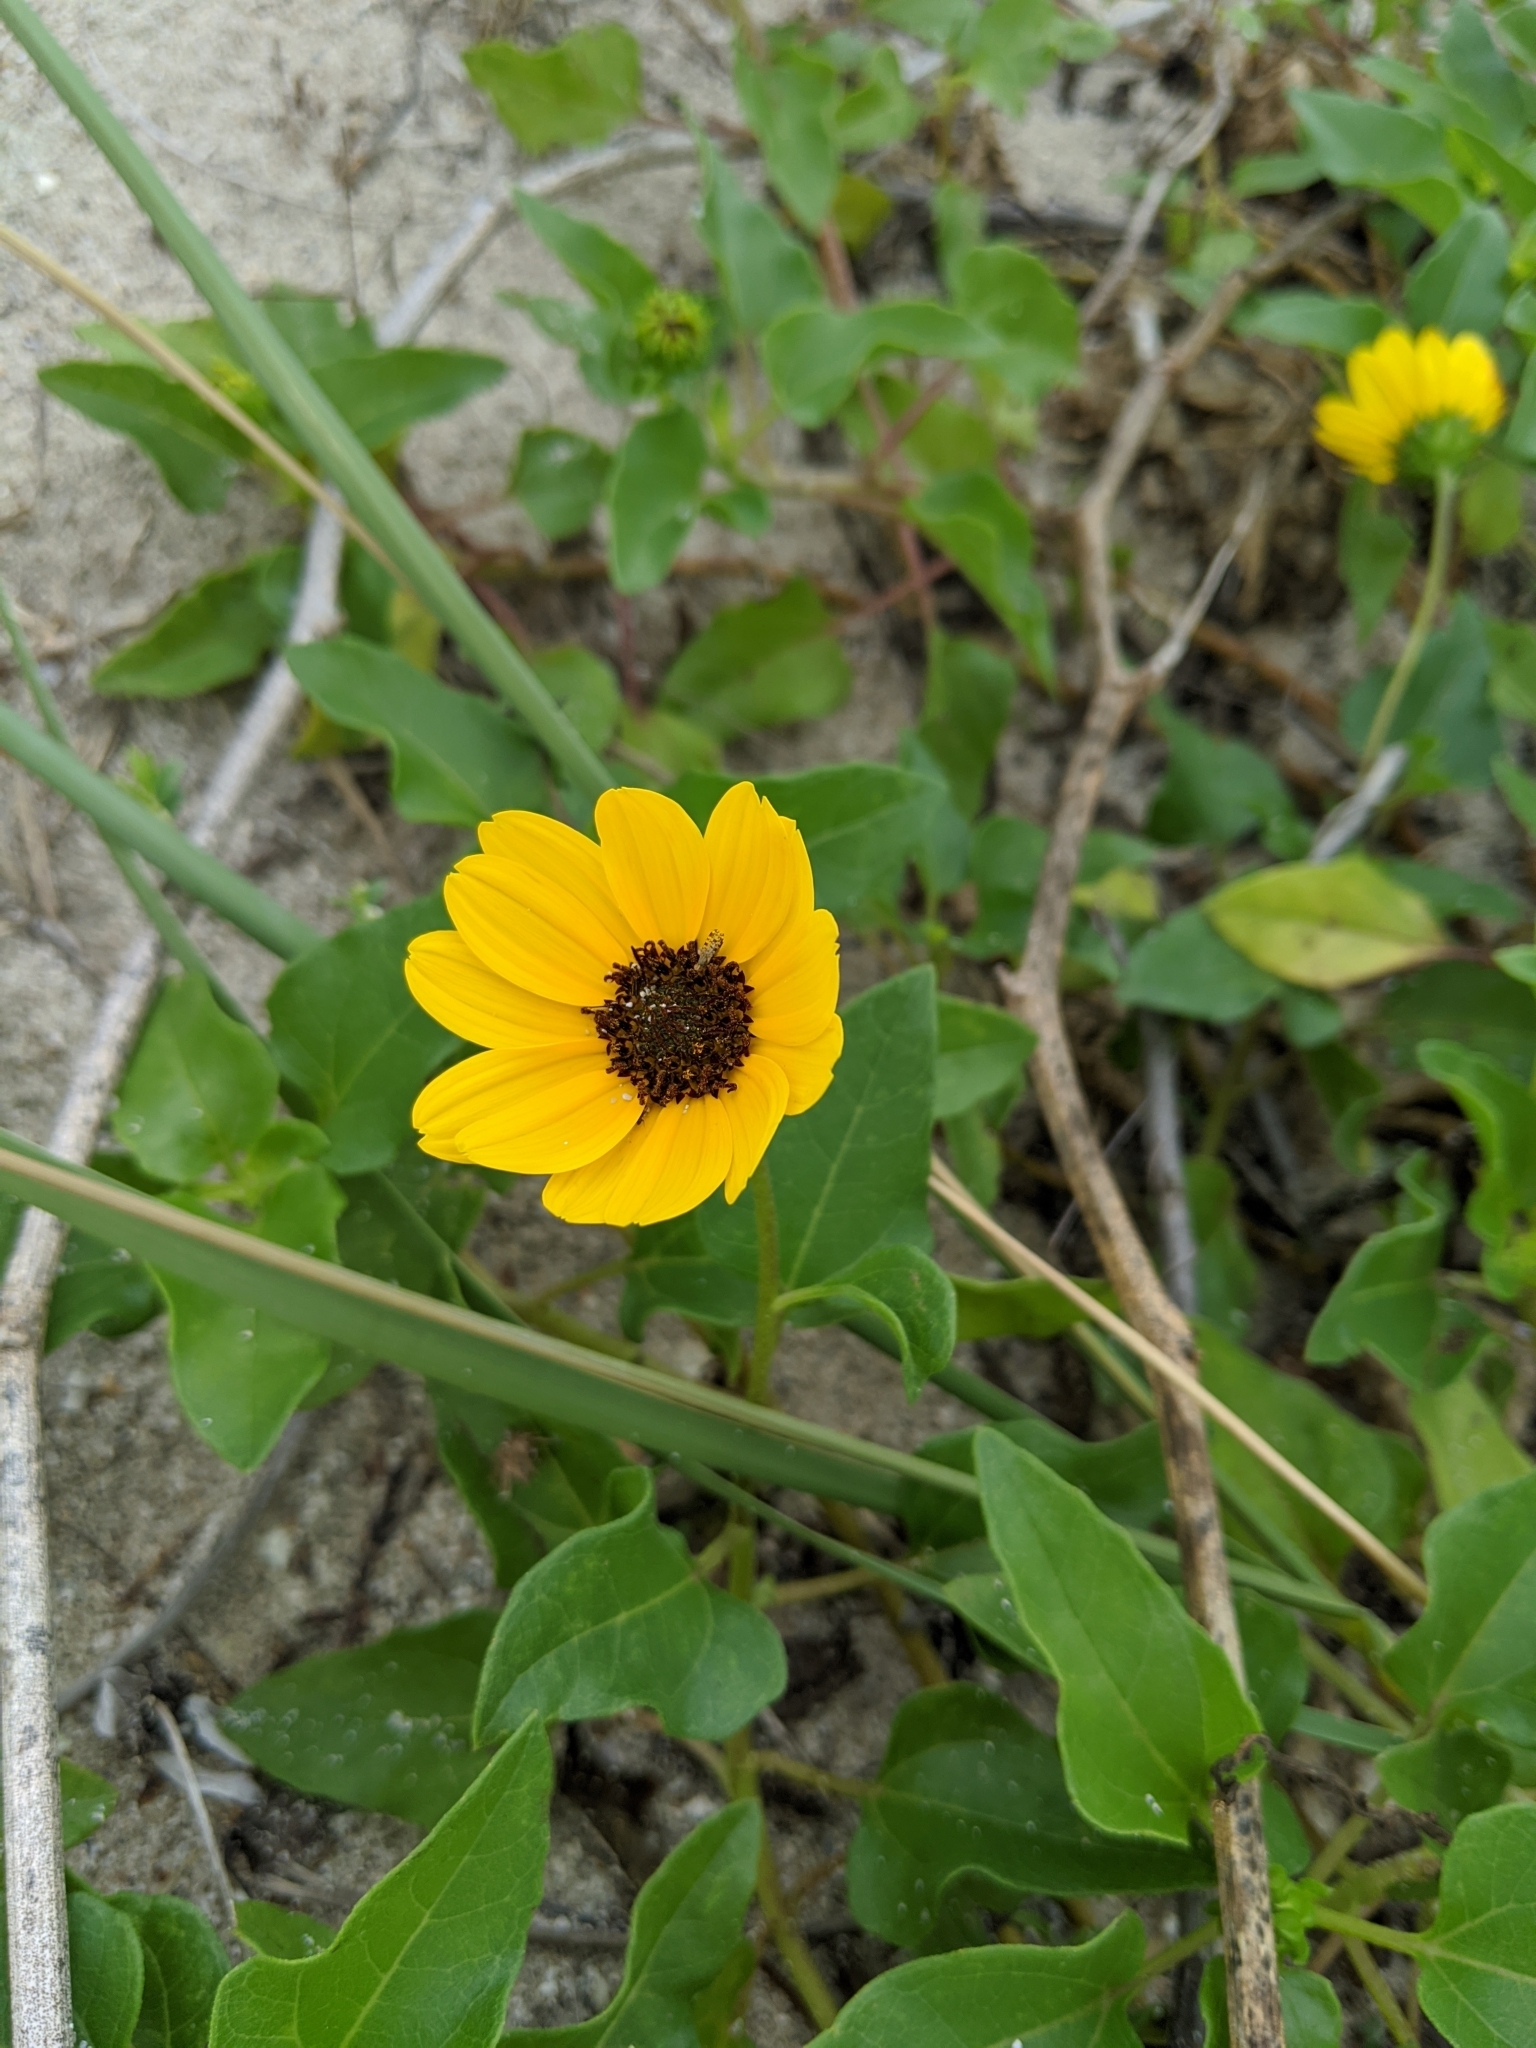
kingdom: Plantae
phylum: Tracheophyta
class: Magnoliopsida
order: Asterales
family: Asteraceae
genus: Helianthus
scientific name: Helianthus debilis
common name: Weak sunflower
